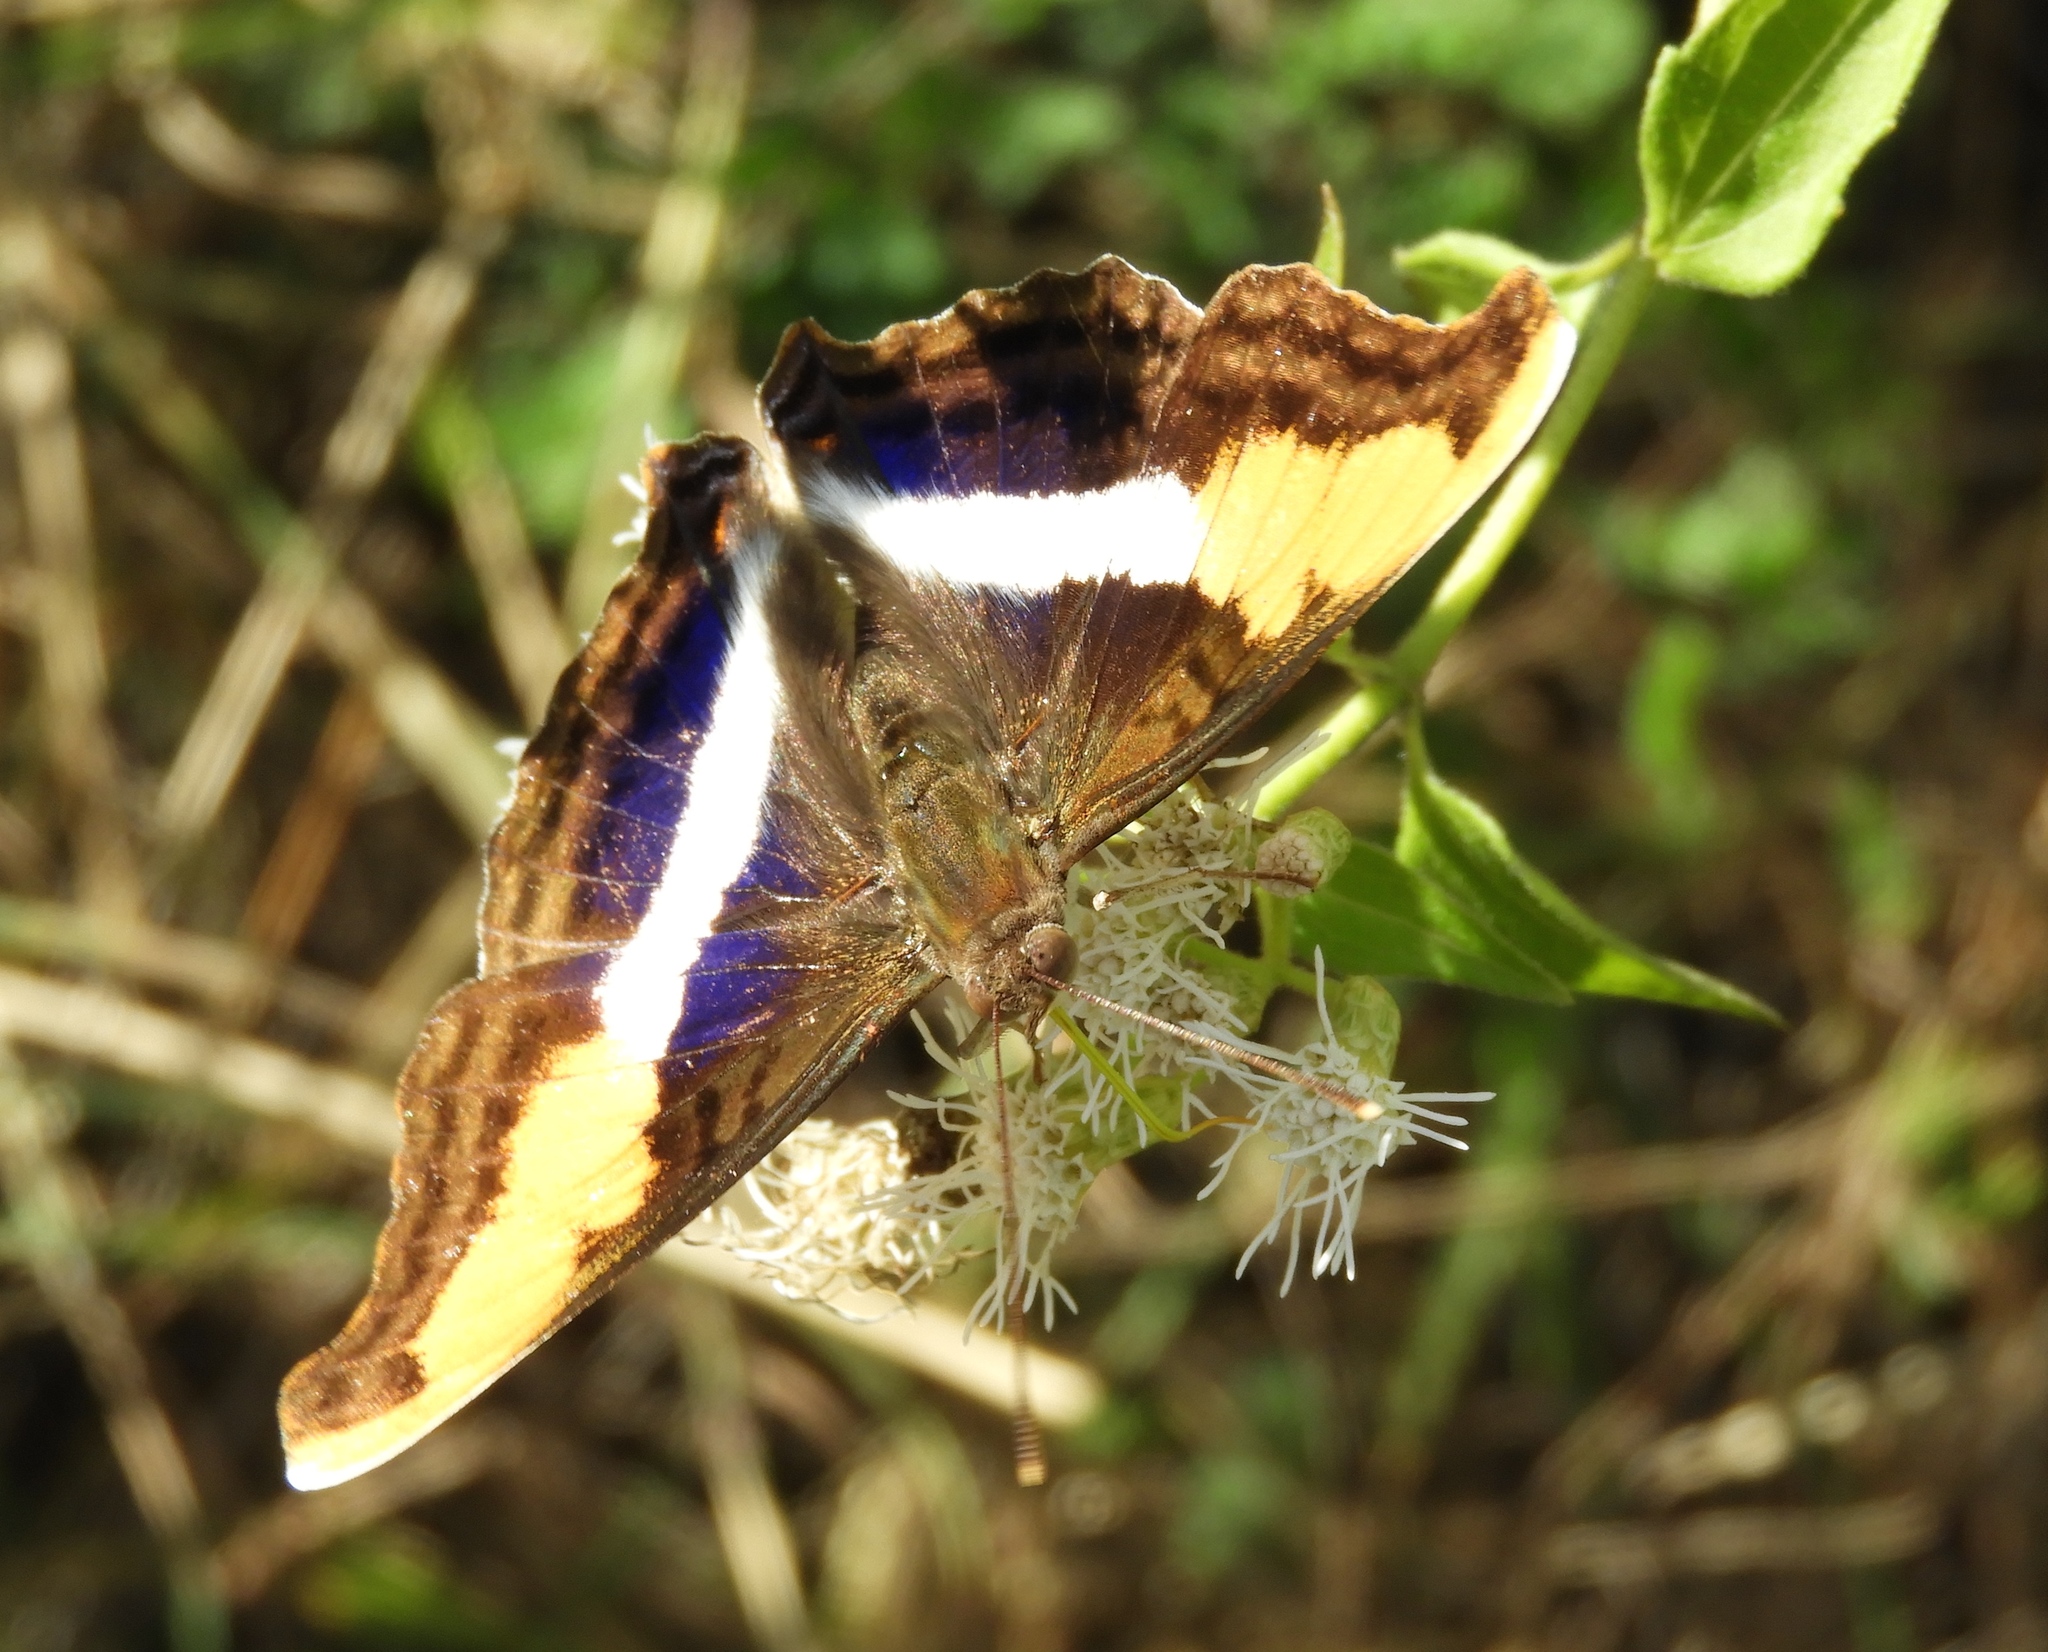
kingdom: Animalia
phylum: Arthropoda
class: Insecta
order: Lepidoptera
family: Nymphalidae
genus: Doxocopa
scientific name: Doxocopa laure
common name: Silver emperor
